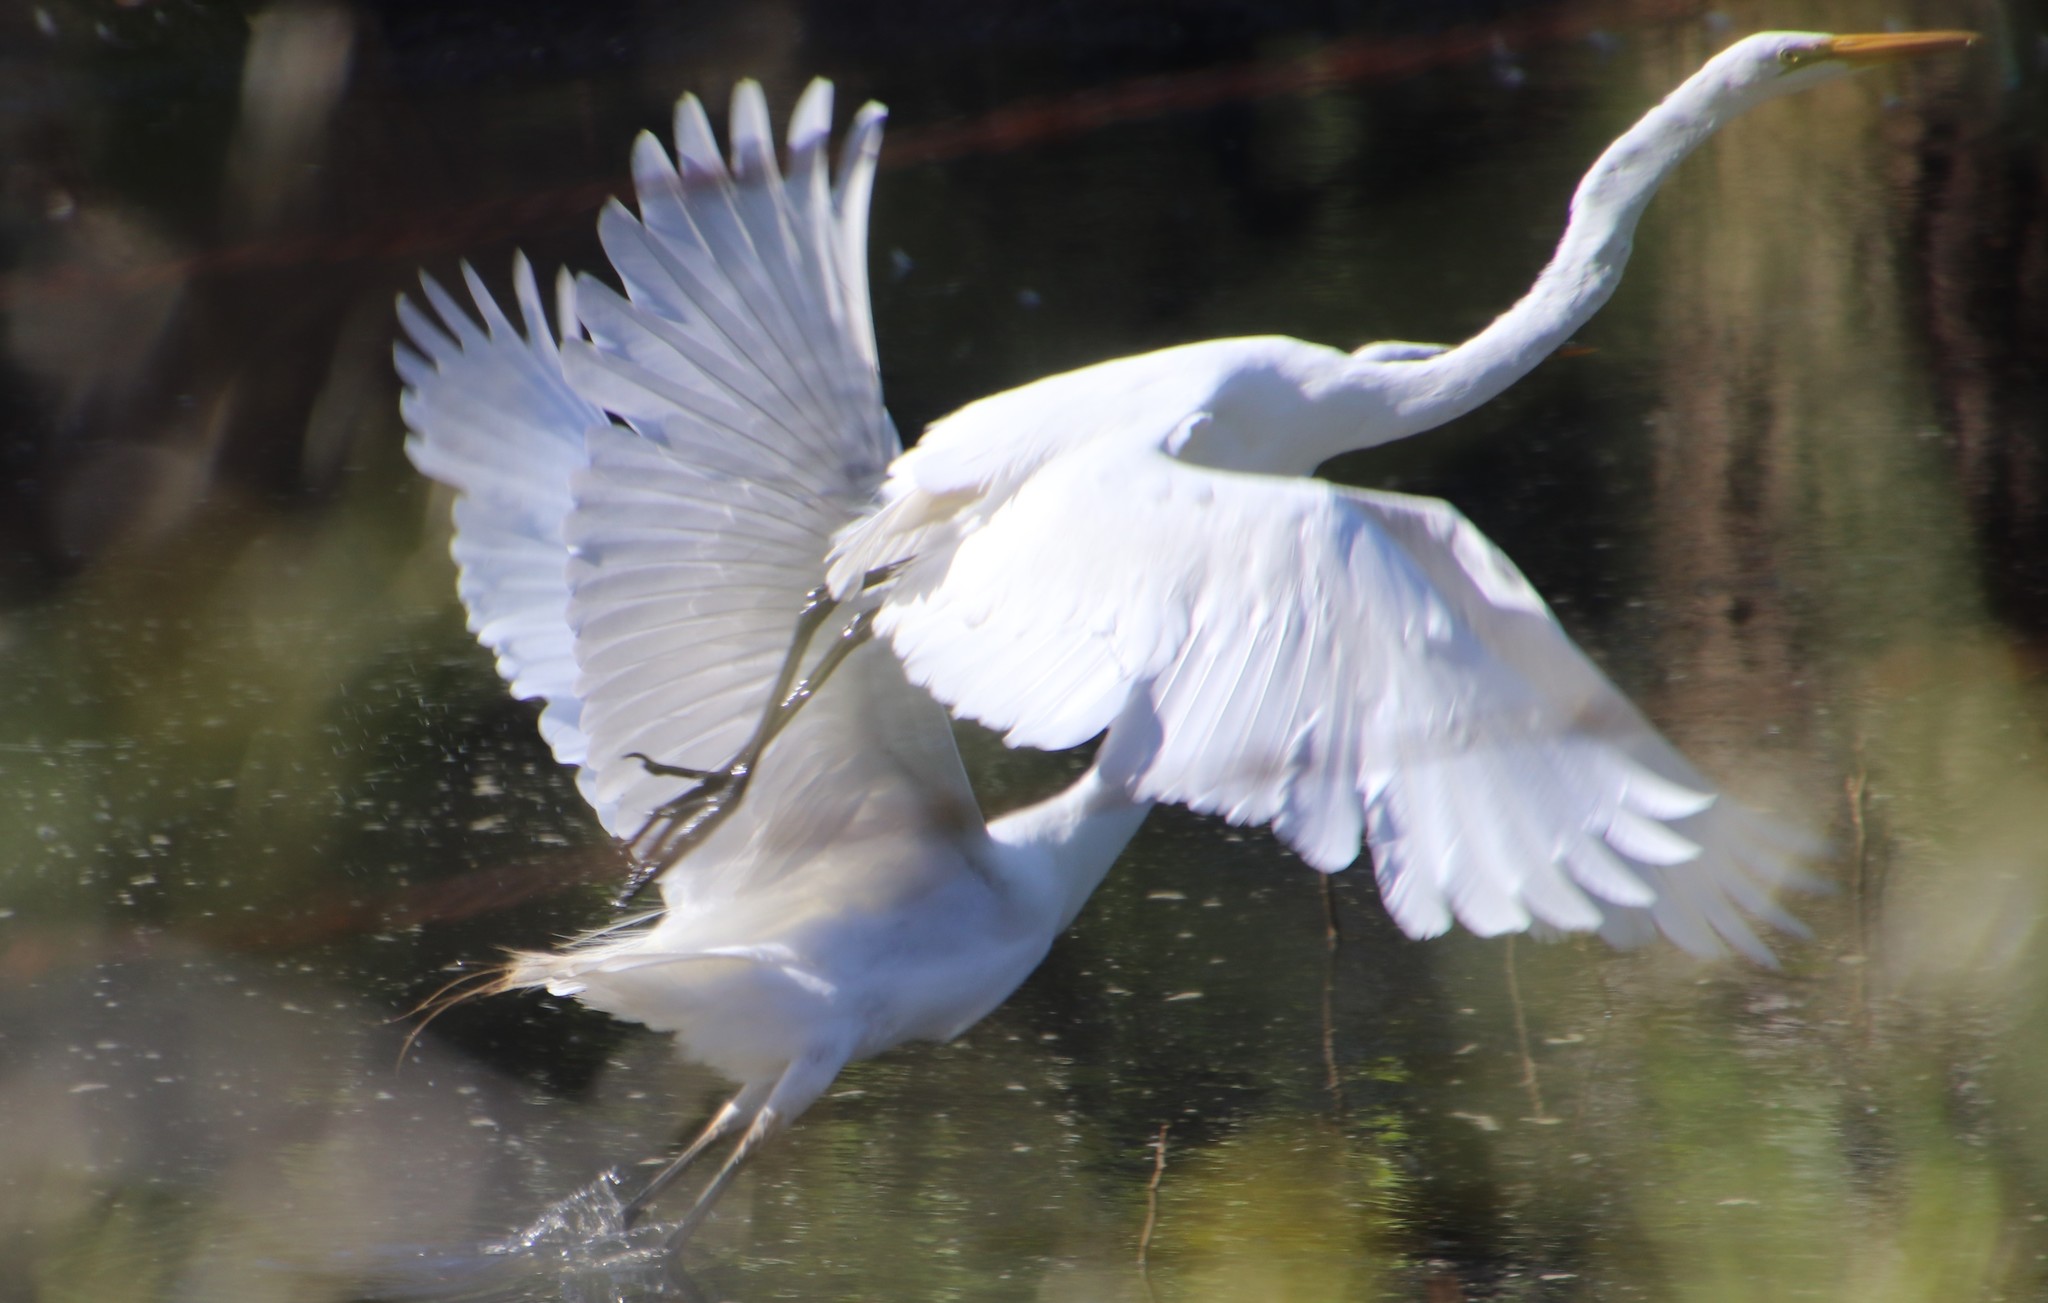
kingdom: Animalia
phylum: Chordata
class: Aves
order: Pelecaniformes
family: Ardeidae
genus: Ardea
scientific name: Ardea alba
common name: Great egret
